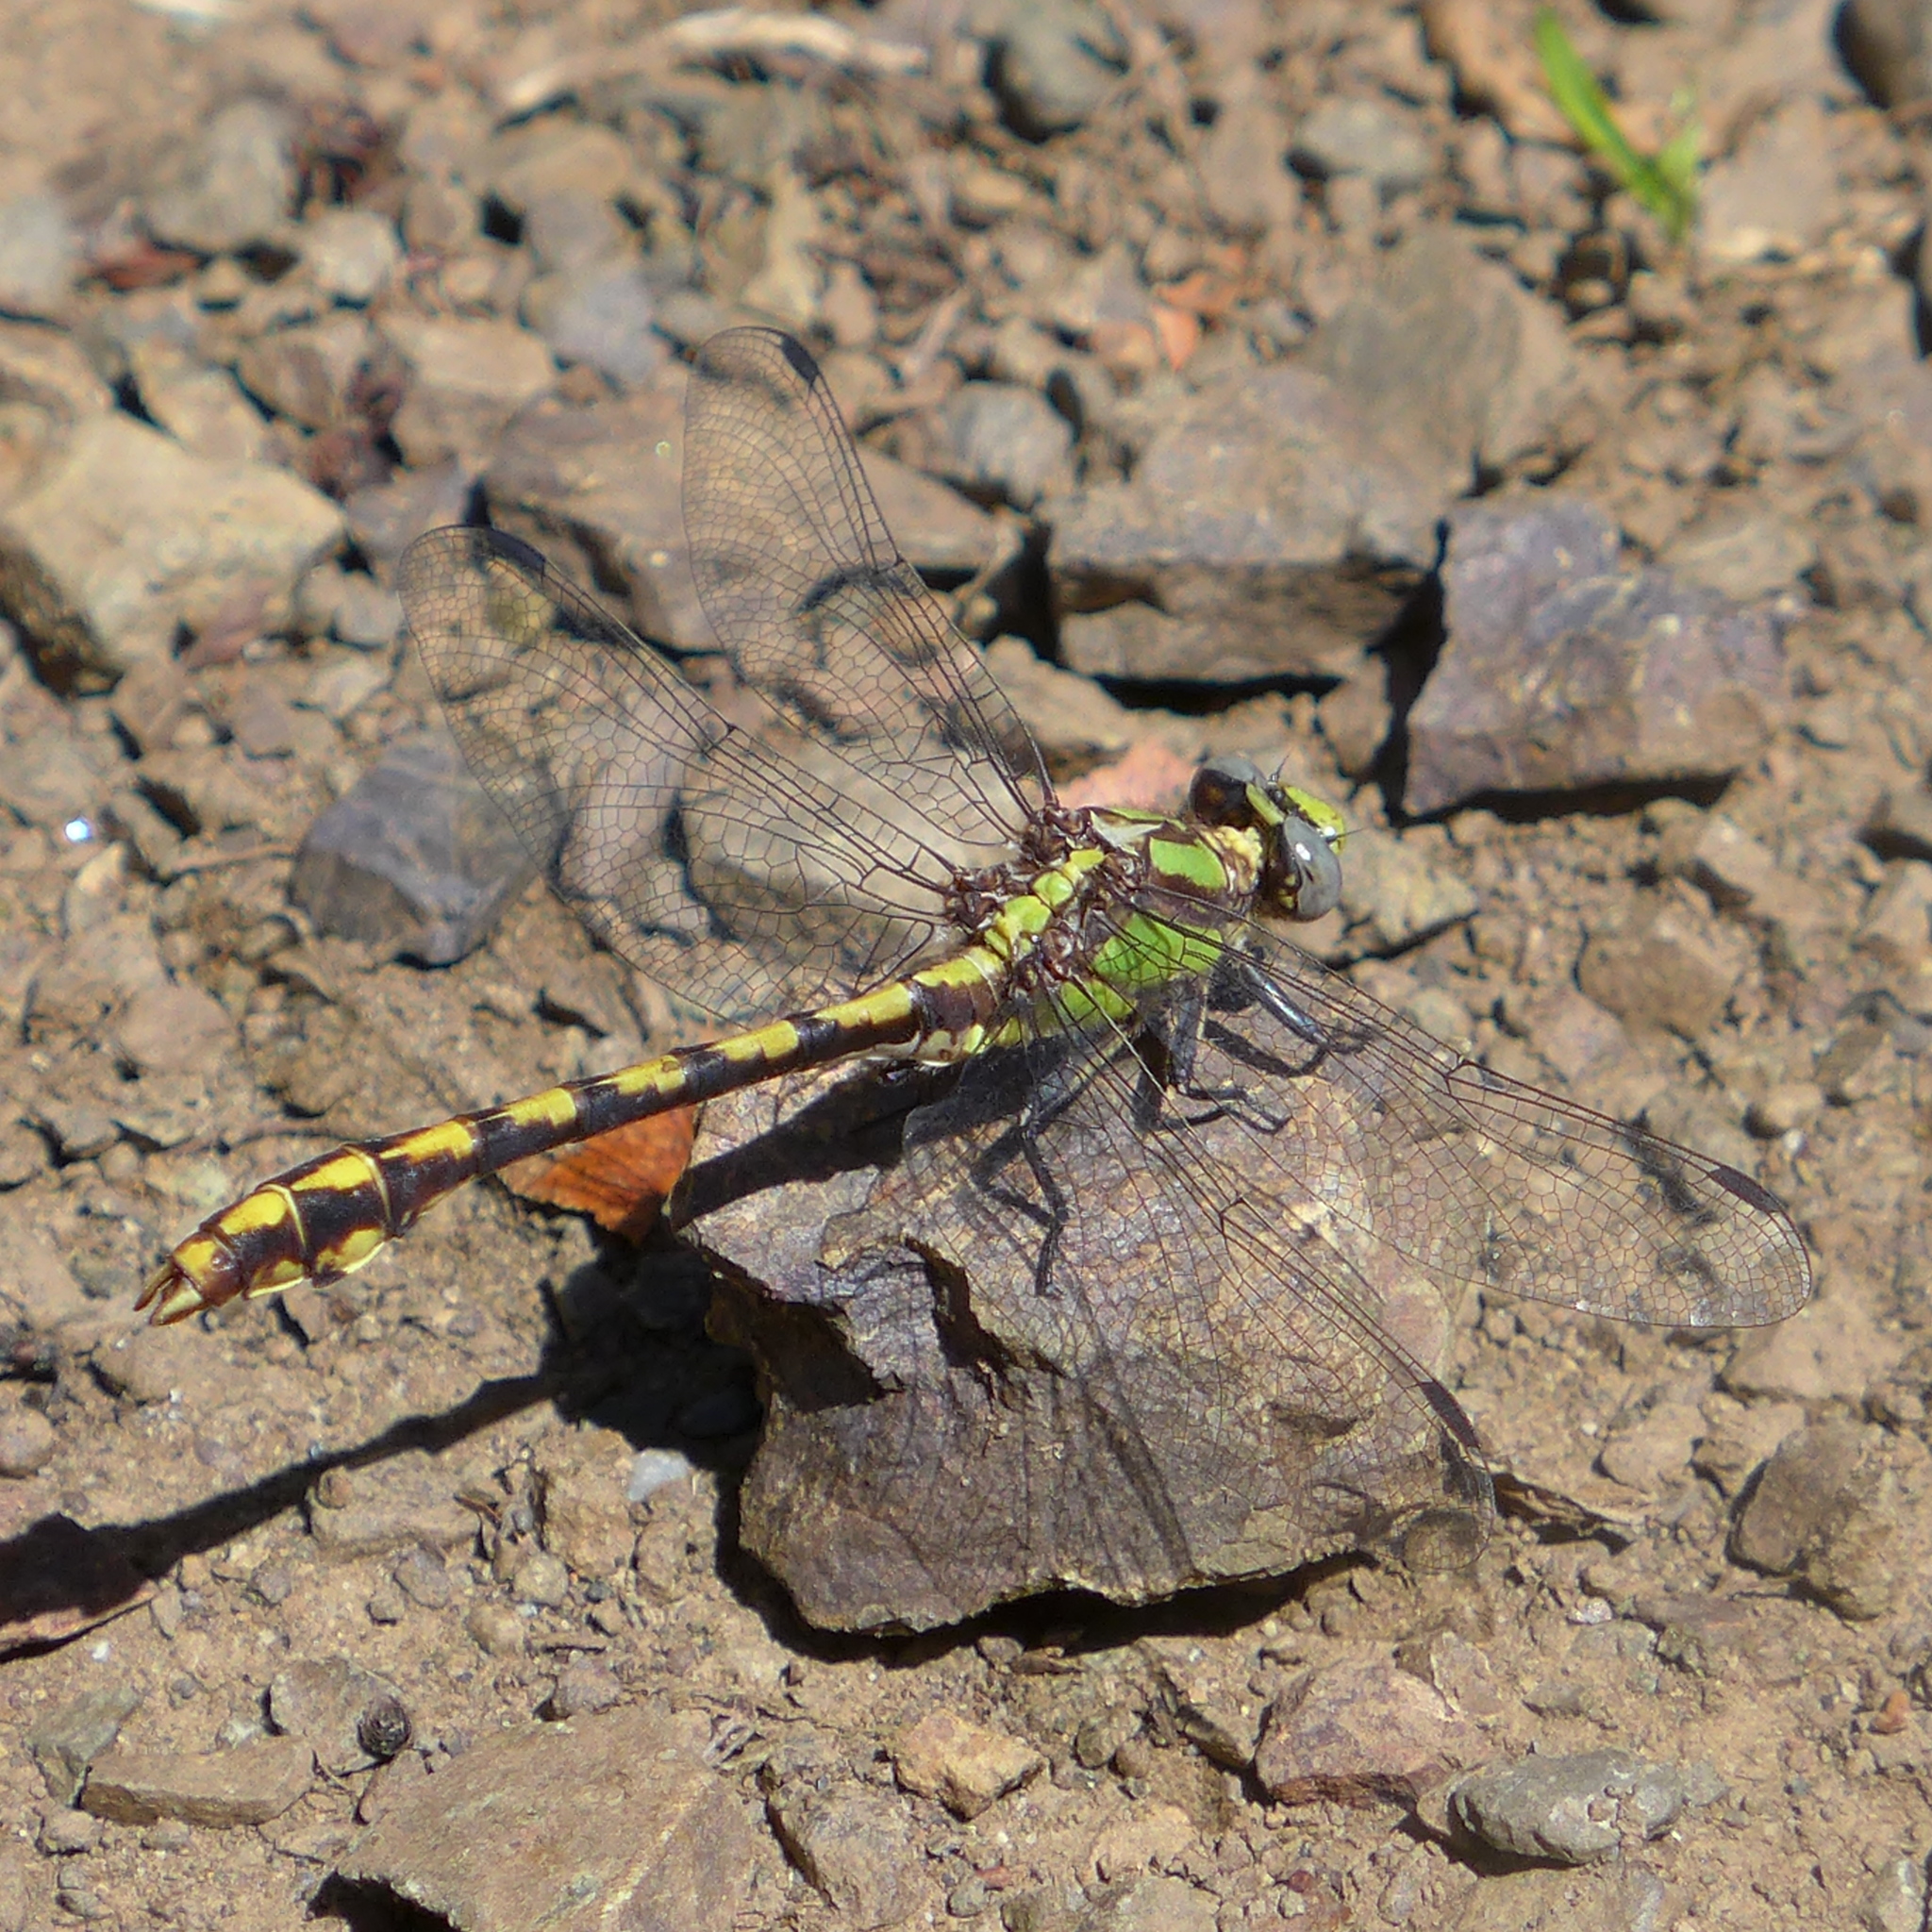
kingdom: Animalia
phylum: Arthropoda
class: Insecta
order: Odonata
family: Gomphidae
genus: Ophiogomphus
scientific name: Ophiogomphus bison
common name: Bison snaketail
